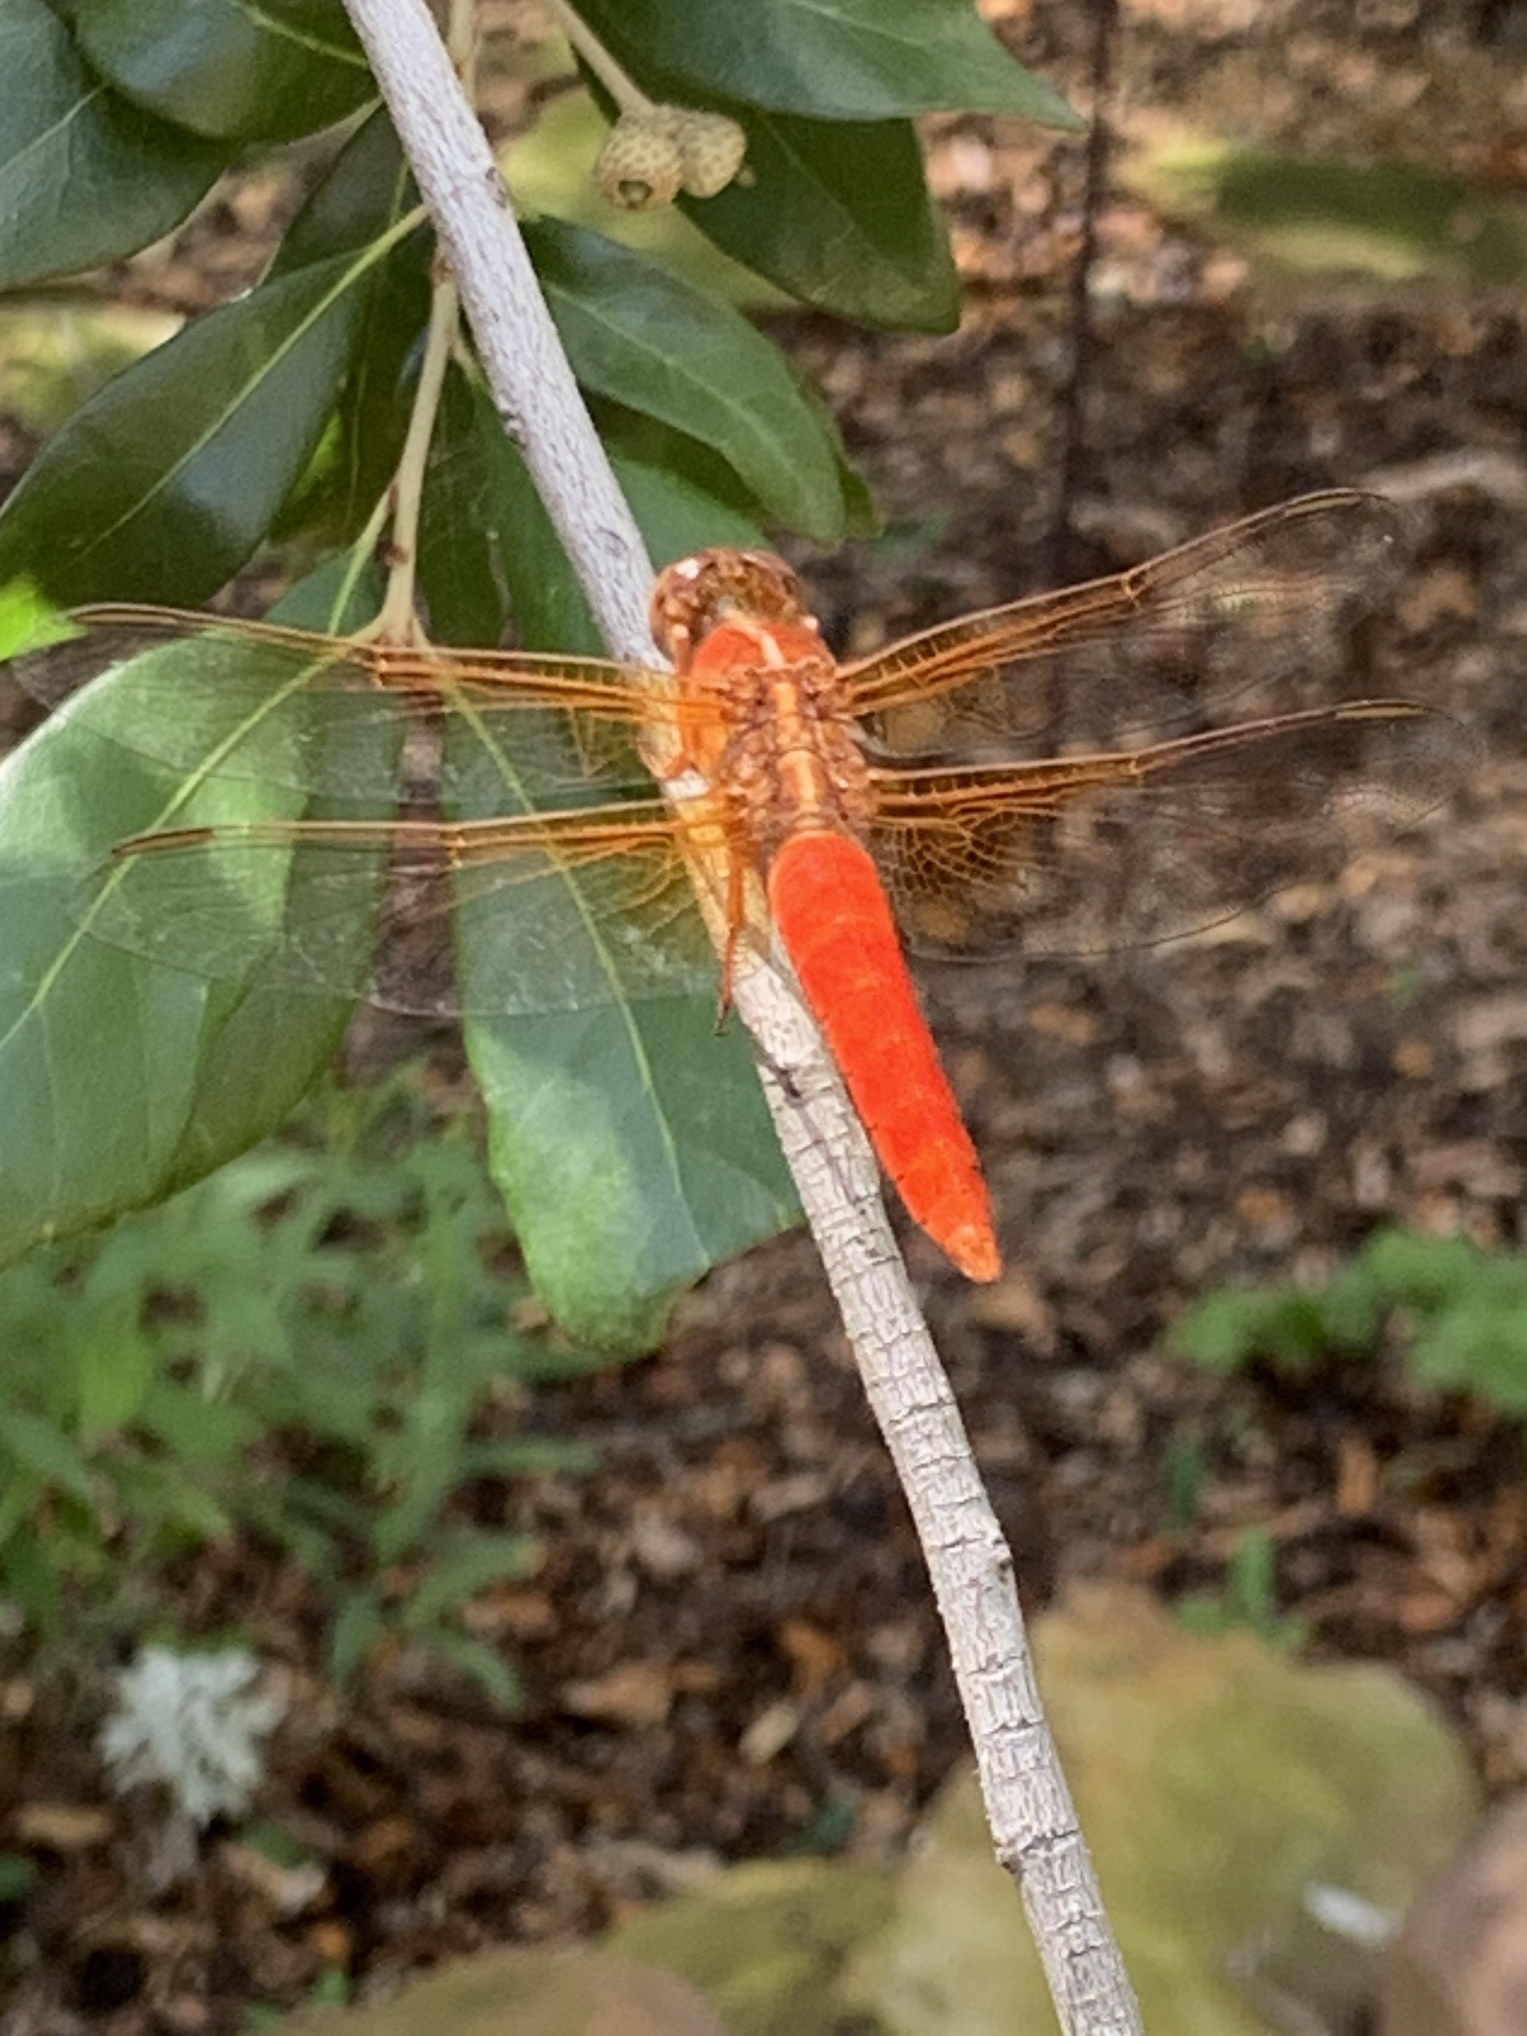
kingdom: Animalia
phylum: Arthropoda
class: Insecta
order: Odonata
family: Libellulidae
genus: Libellula
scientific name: Libellula croceipennis
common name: Neon skimmer
